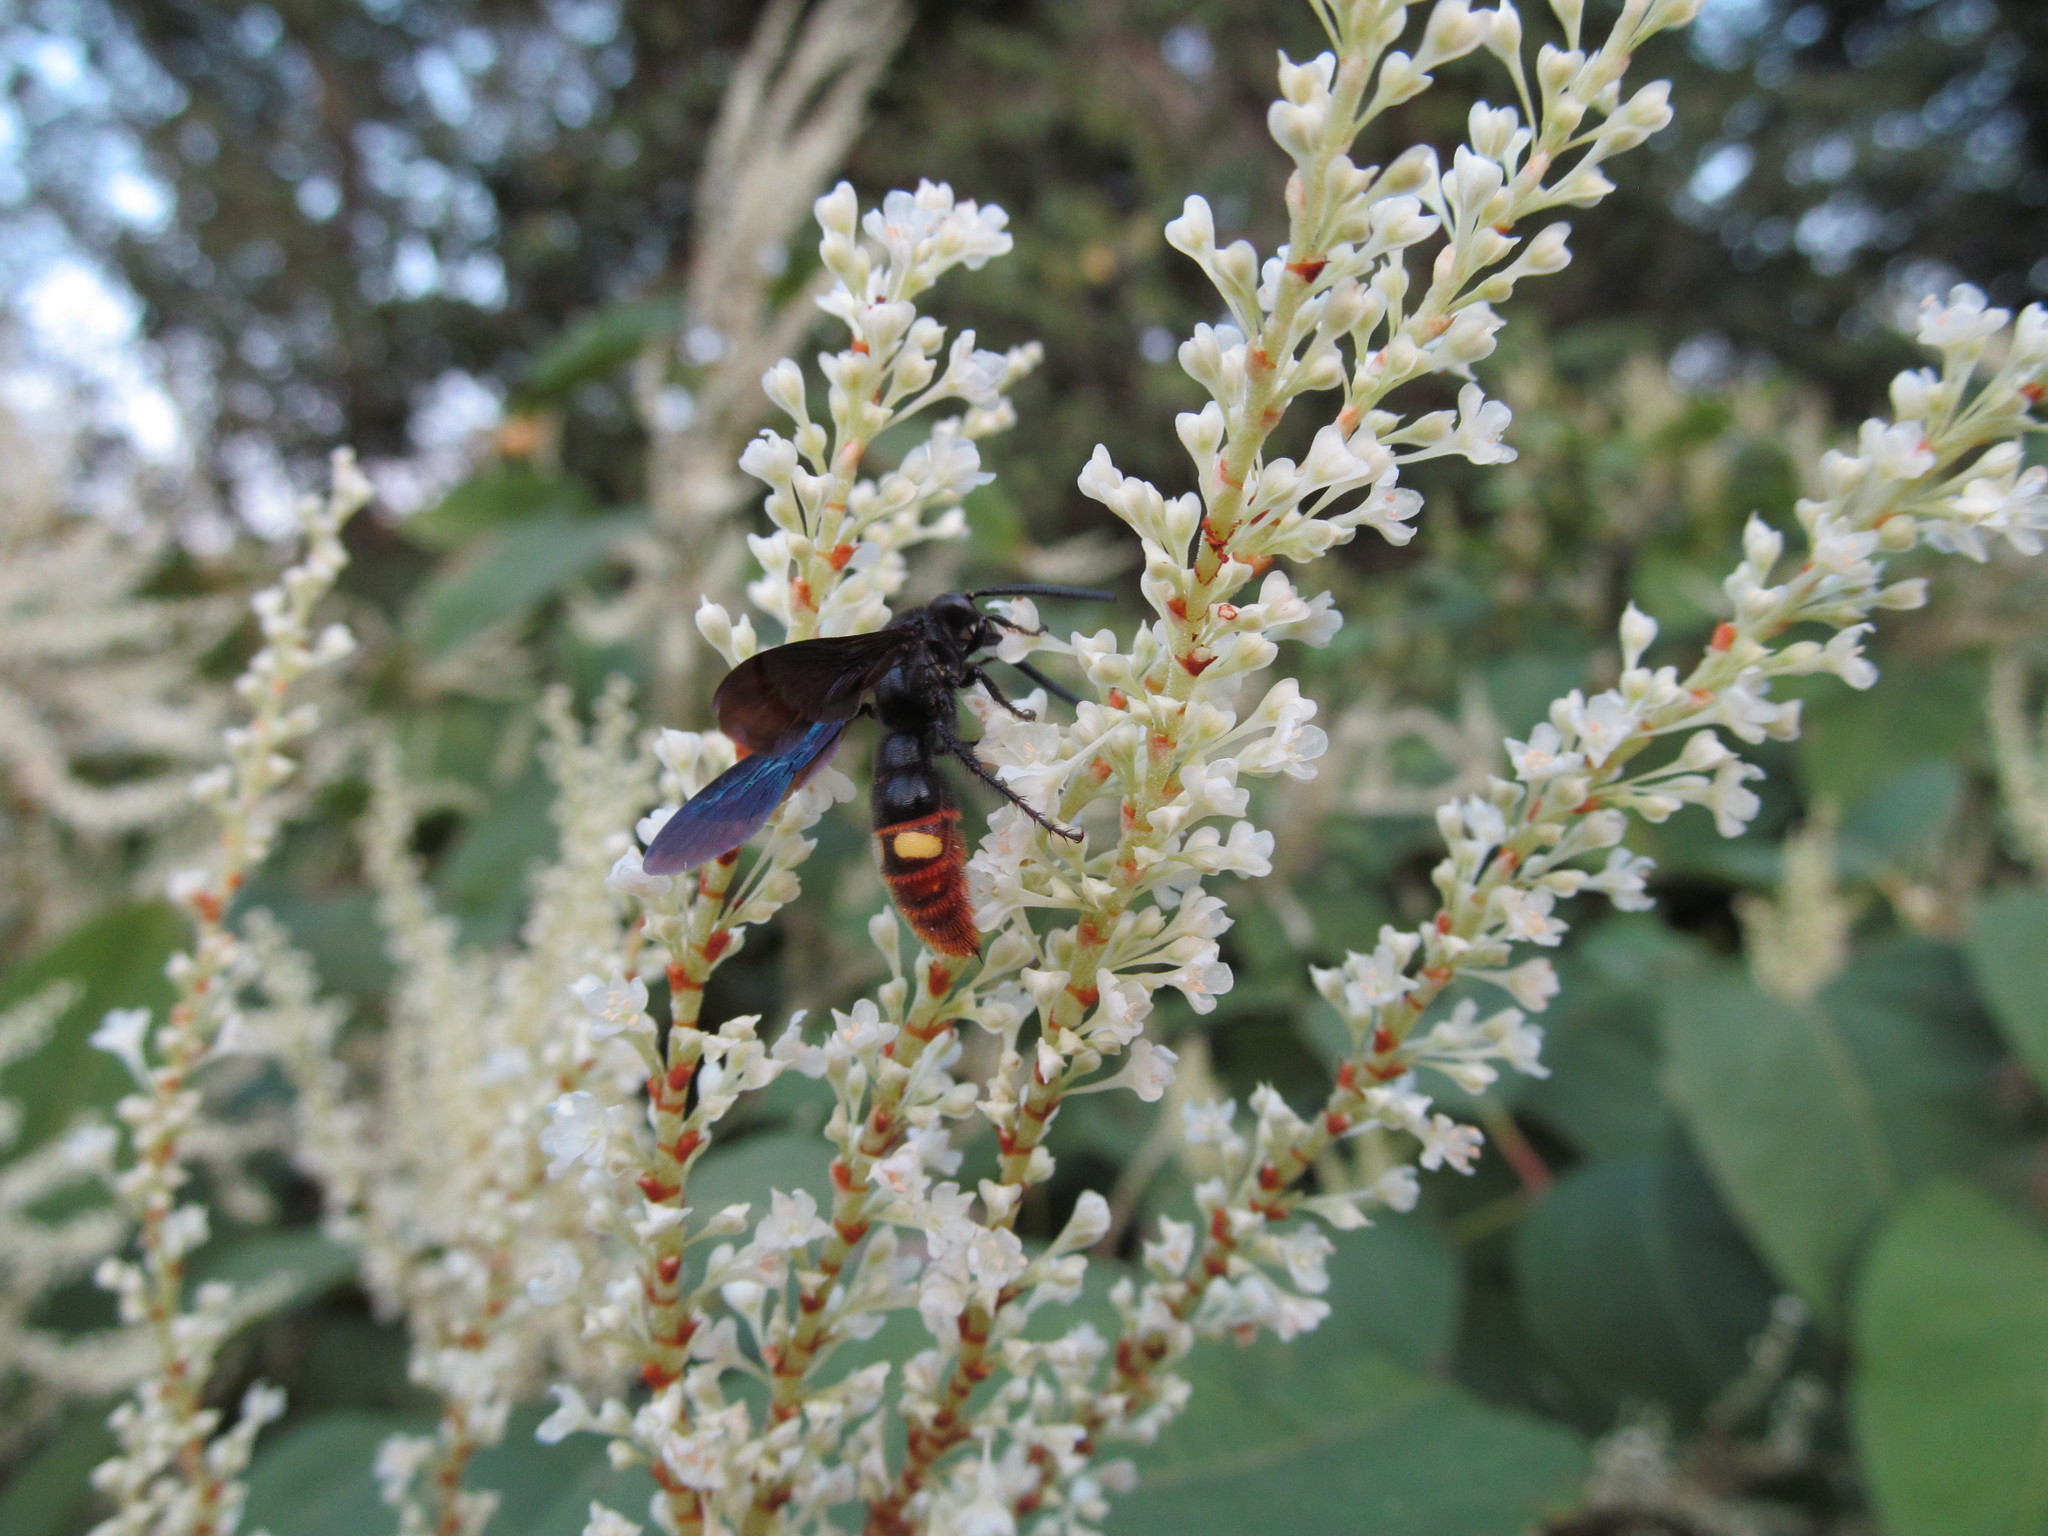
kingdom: Animalia
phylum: Arthropoda
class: Insecta
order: Hymenoptera
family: Scoliidae
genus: Scolia
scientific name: Scolia dubia
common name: Blue-winged scoliid wasp
